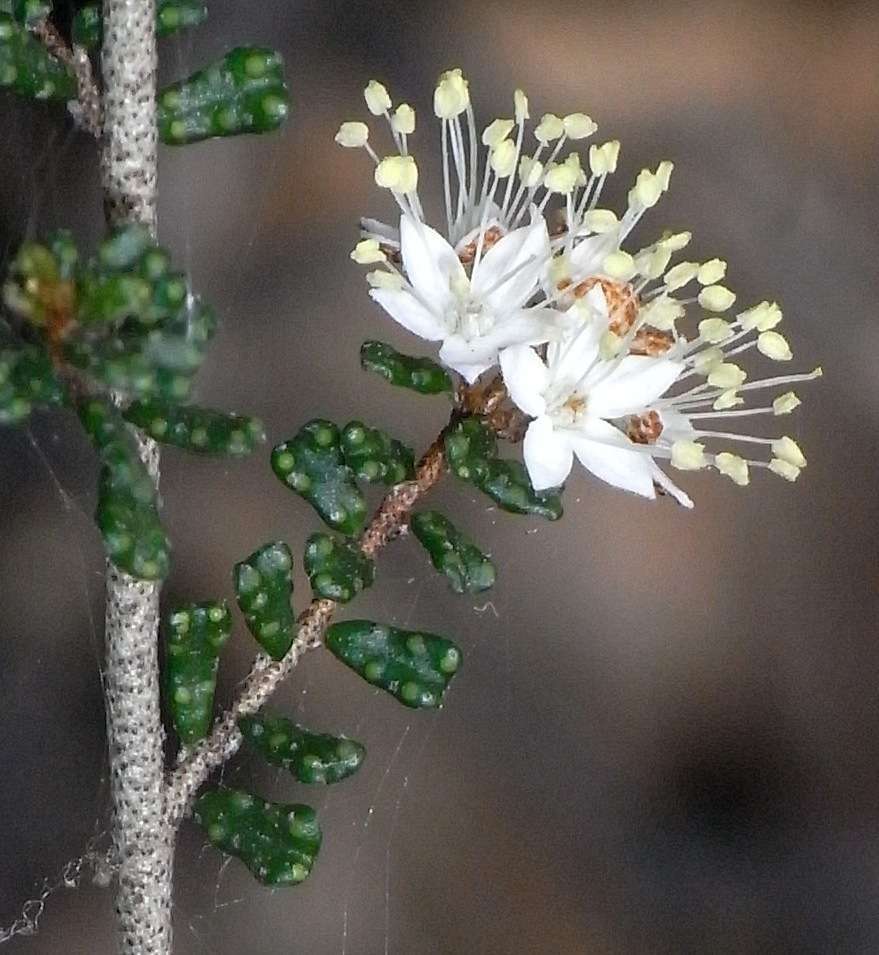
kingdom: Plantae
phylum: Tracheophyta
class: Magnoliopsida
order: Sapindales
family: Rutaceae
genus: Phebalium
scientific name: Phebalium festivum
